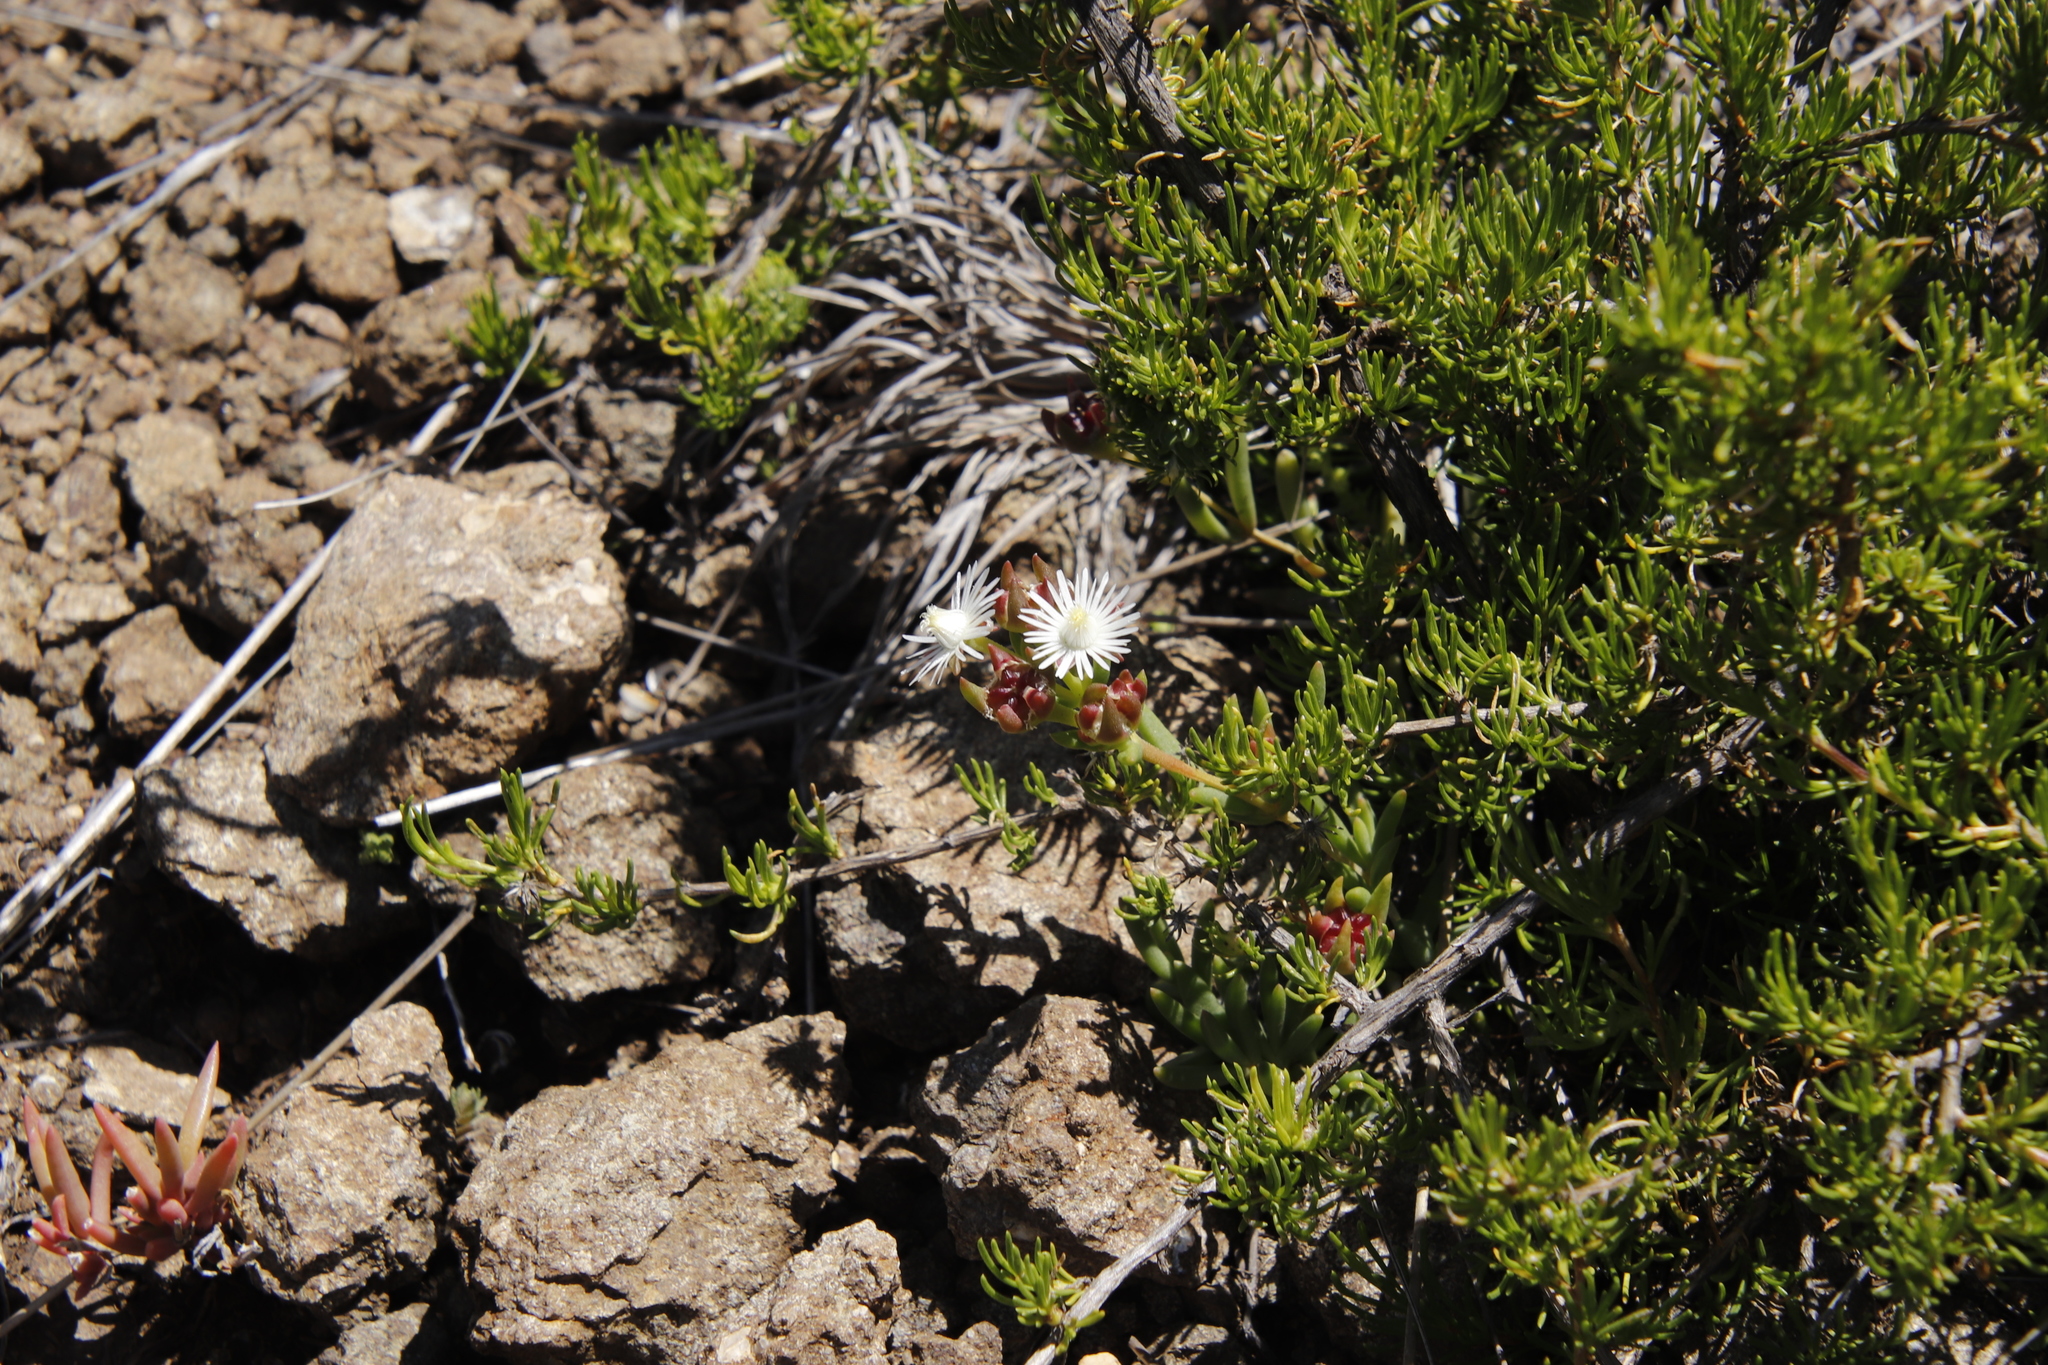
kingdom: Plantae
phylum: Tracheophyta
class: Magnoliopsida
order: Caryophyllales
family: Aizoaceae
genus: Delosperma
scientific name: Delosperma brevisepalum
